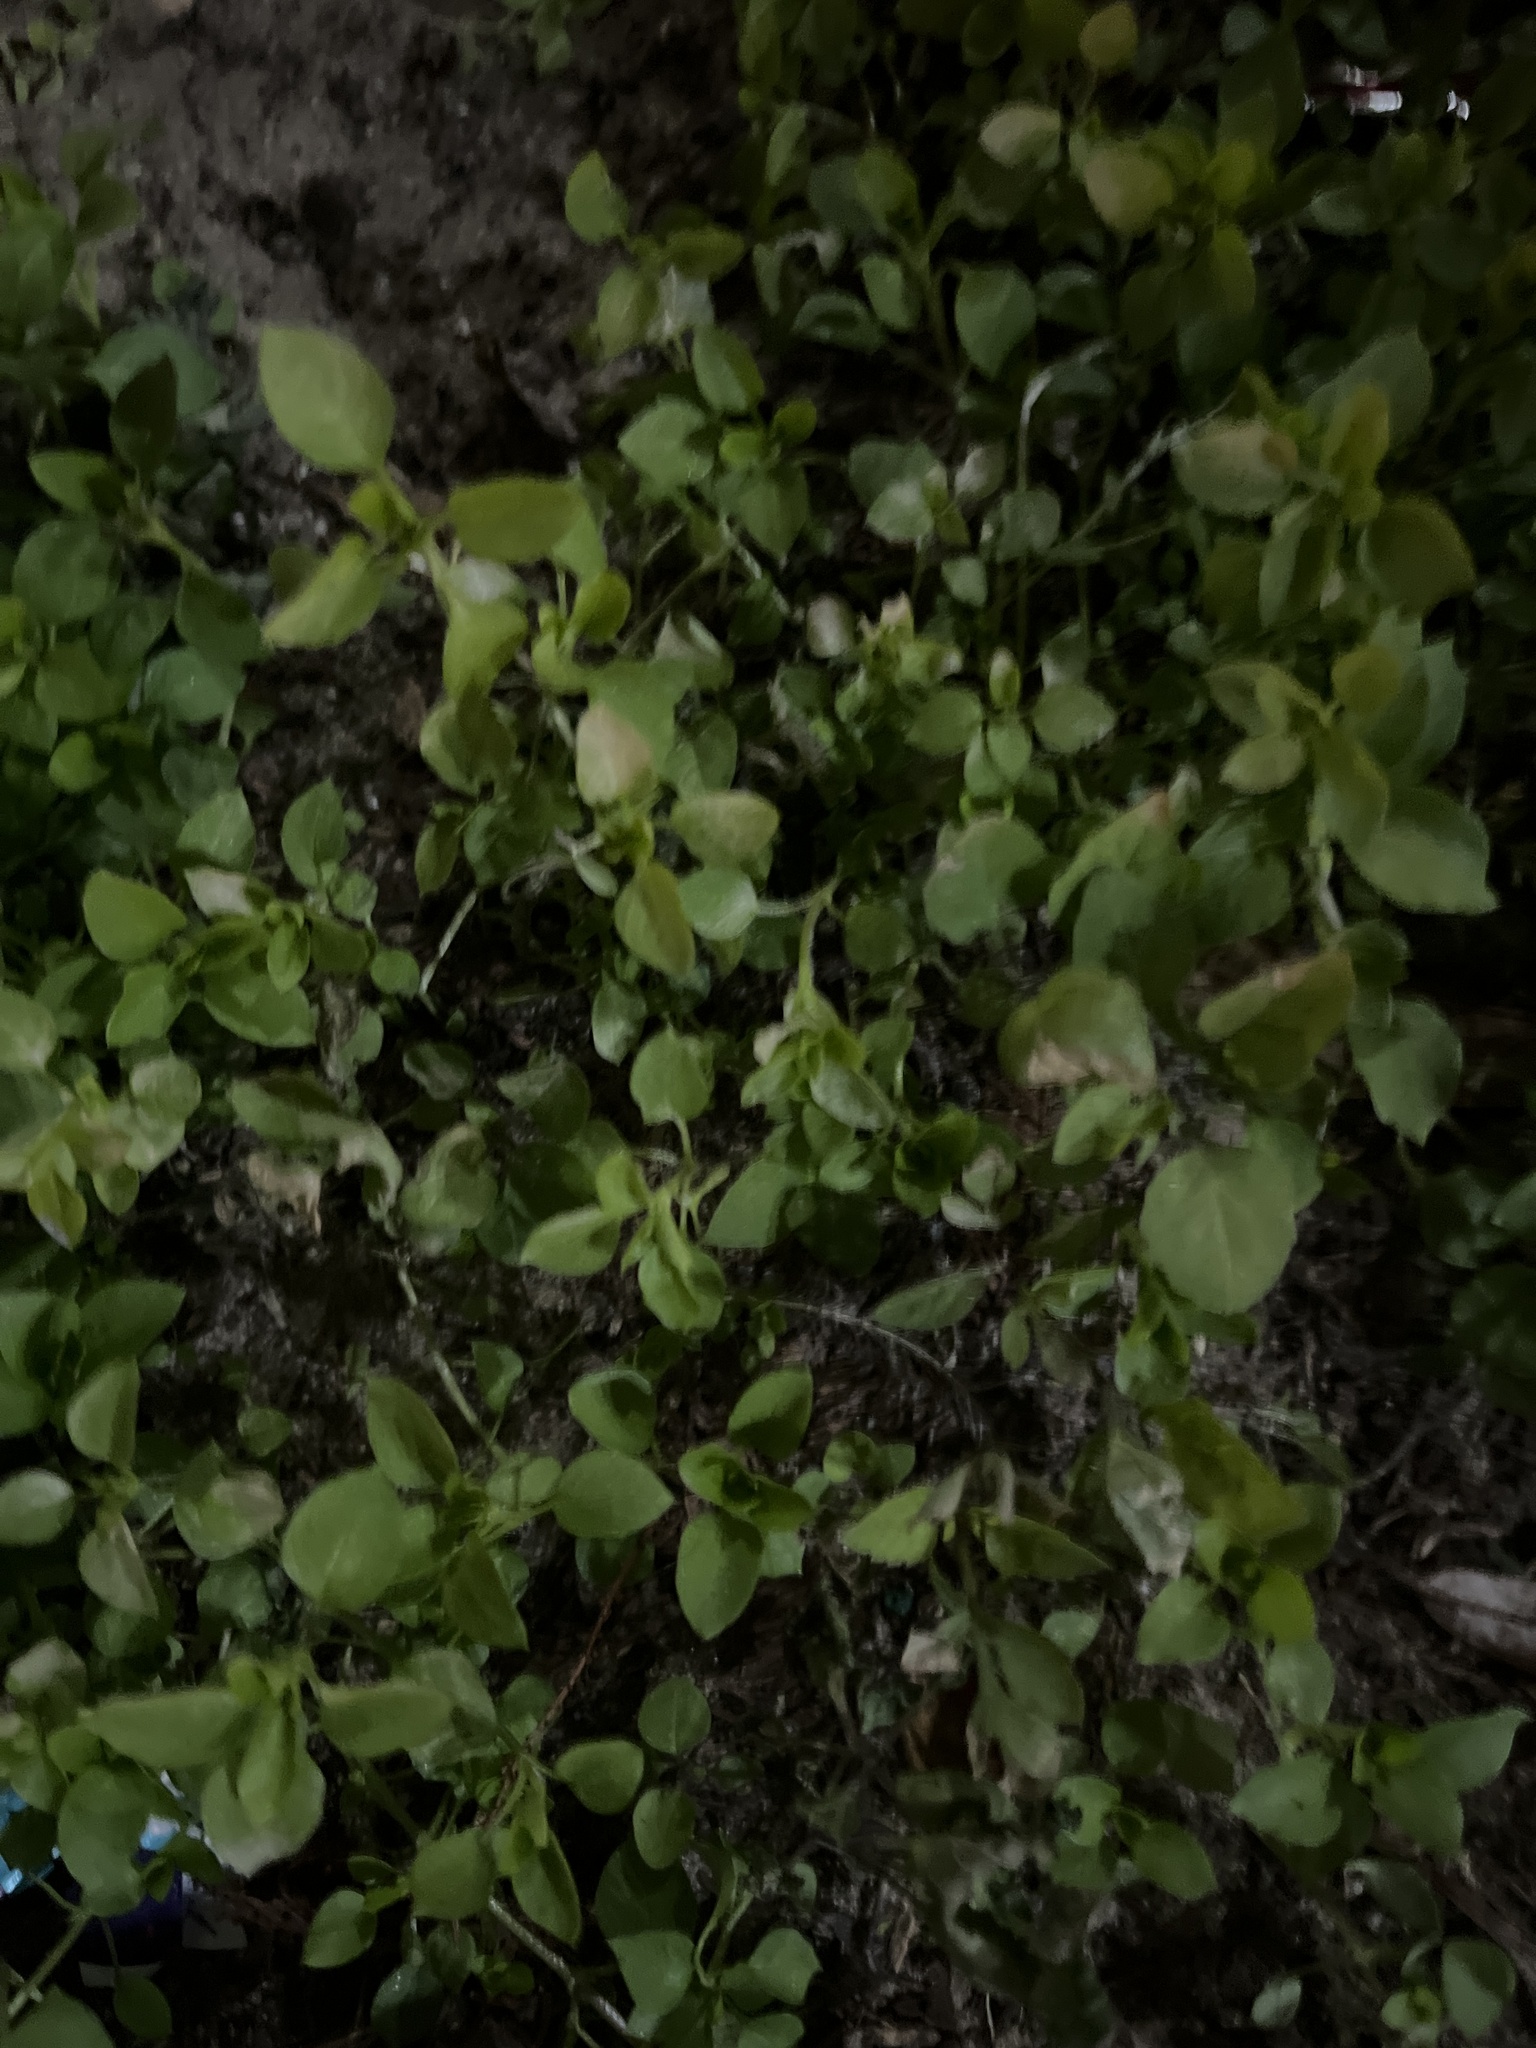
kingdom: Plantae
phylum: Tracheophyta
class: Magnoliopsida
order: Caryophyllales
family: Caryophyllaceae
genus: Stellaria
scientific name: Stellaria media
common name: Common chickweed
